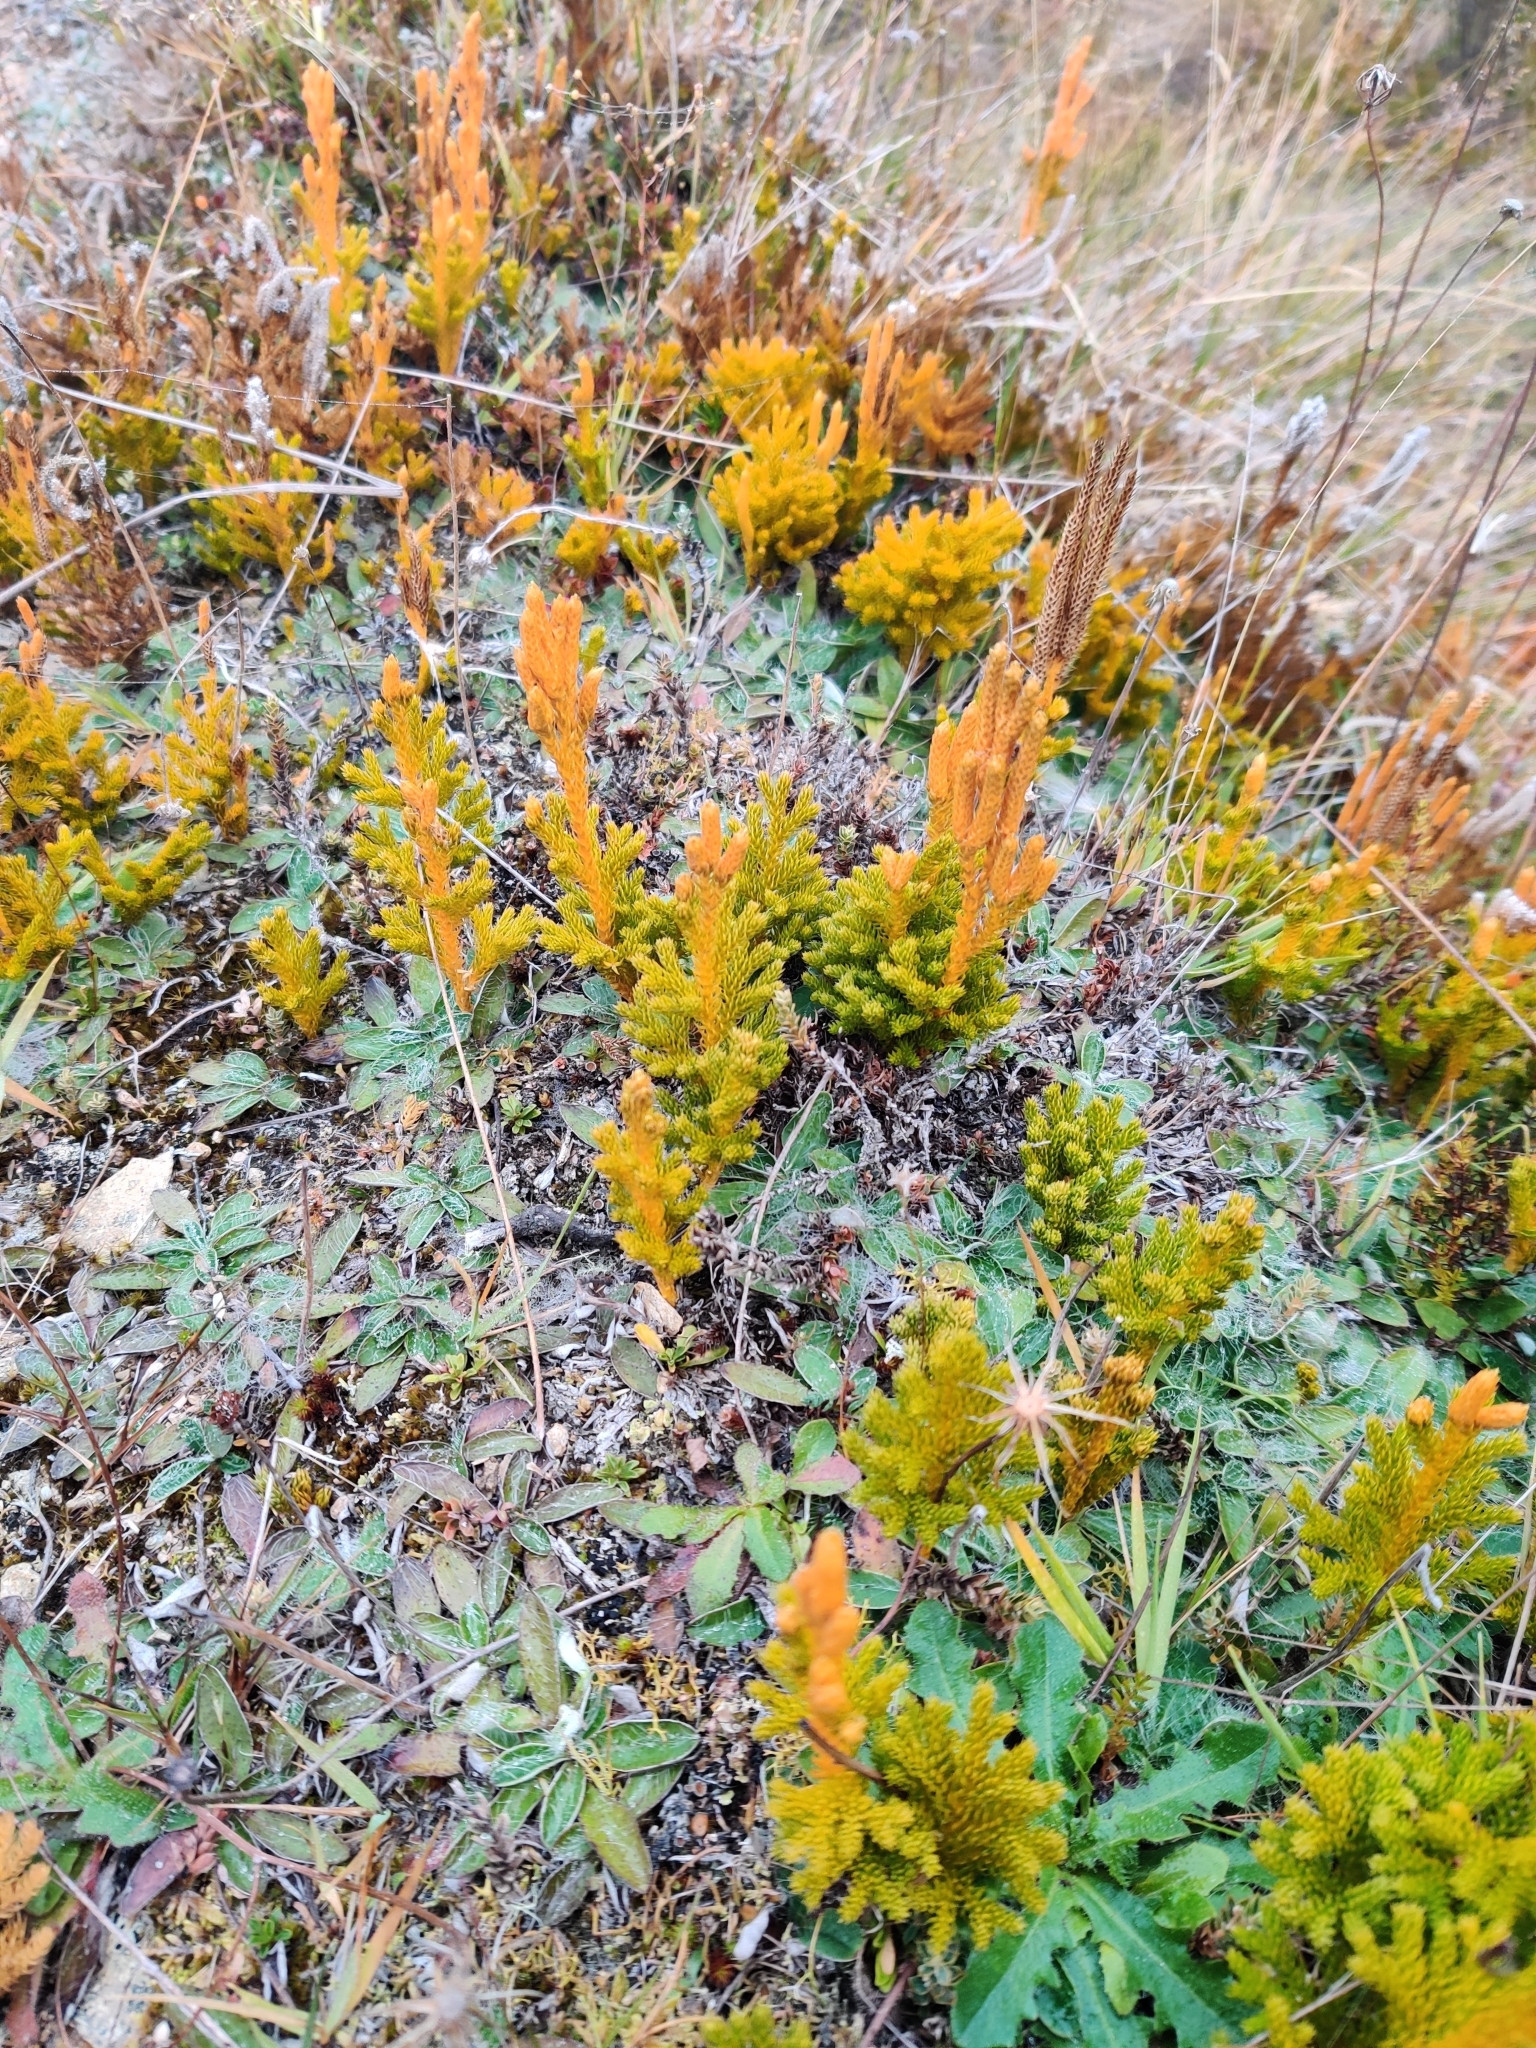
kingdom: Plantae
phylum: Tracheophyta
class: Lycopodiopsida
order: Lycopodiales
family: Lycopodiaceae
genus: Austrolycopodium
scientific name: Austrolycopodium fastigiatum
